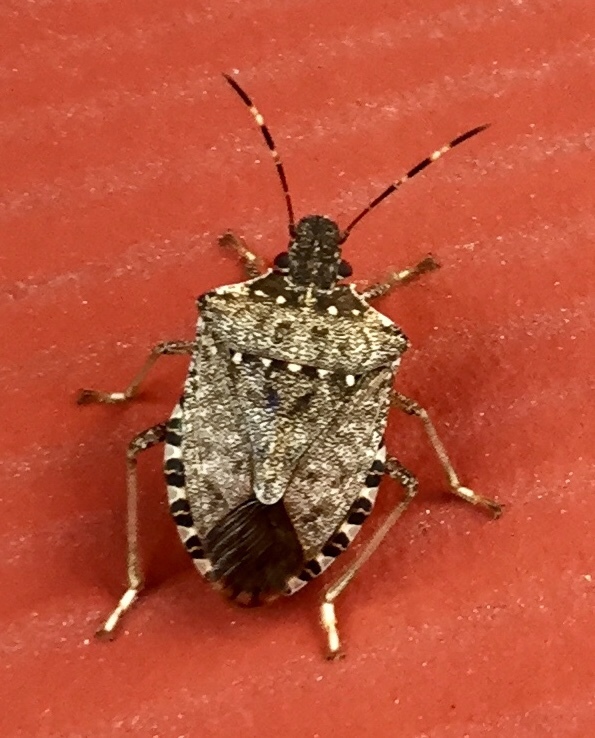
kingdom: Animalia
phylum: Arthropoda
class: Insecta
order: Hemiptera
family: Pentatomidae
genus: Halyomorpha
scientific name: Halyomorpha halys
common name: Brown marmorated stink bug
